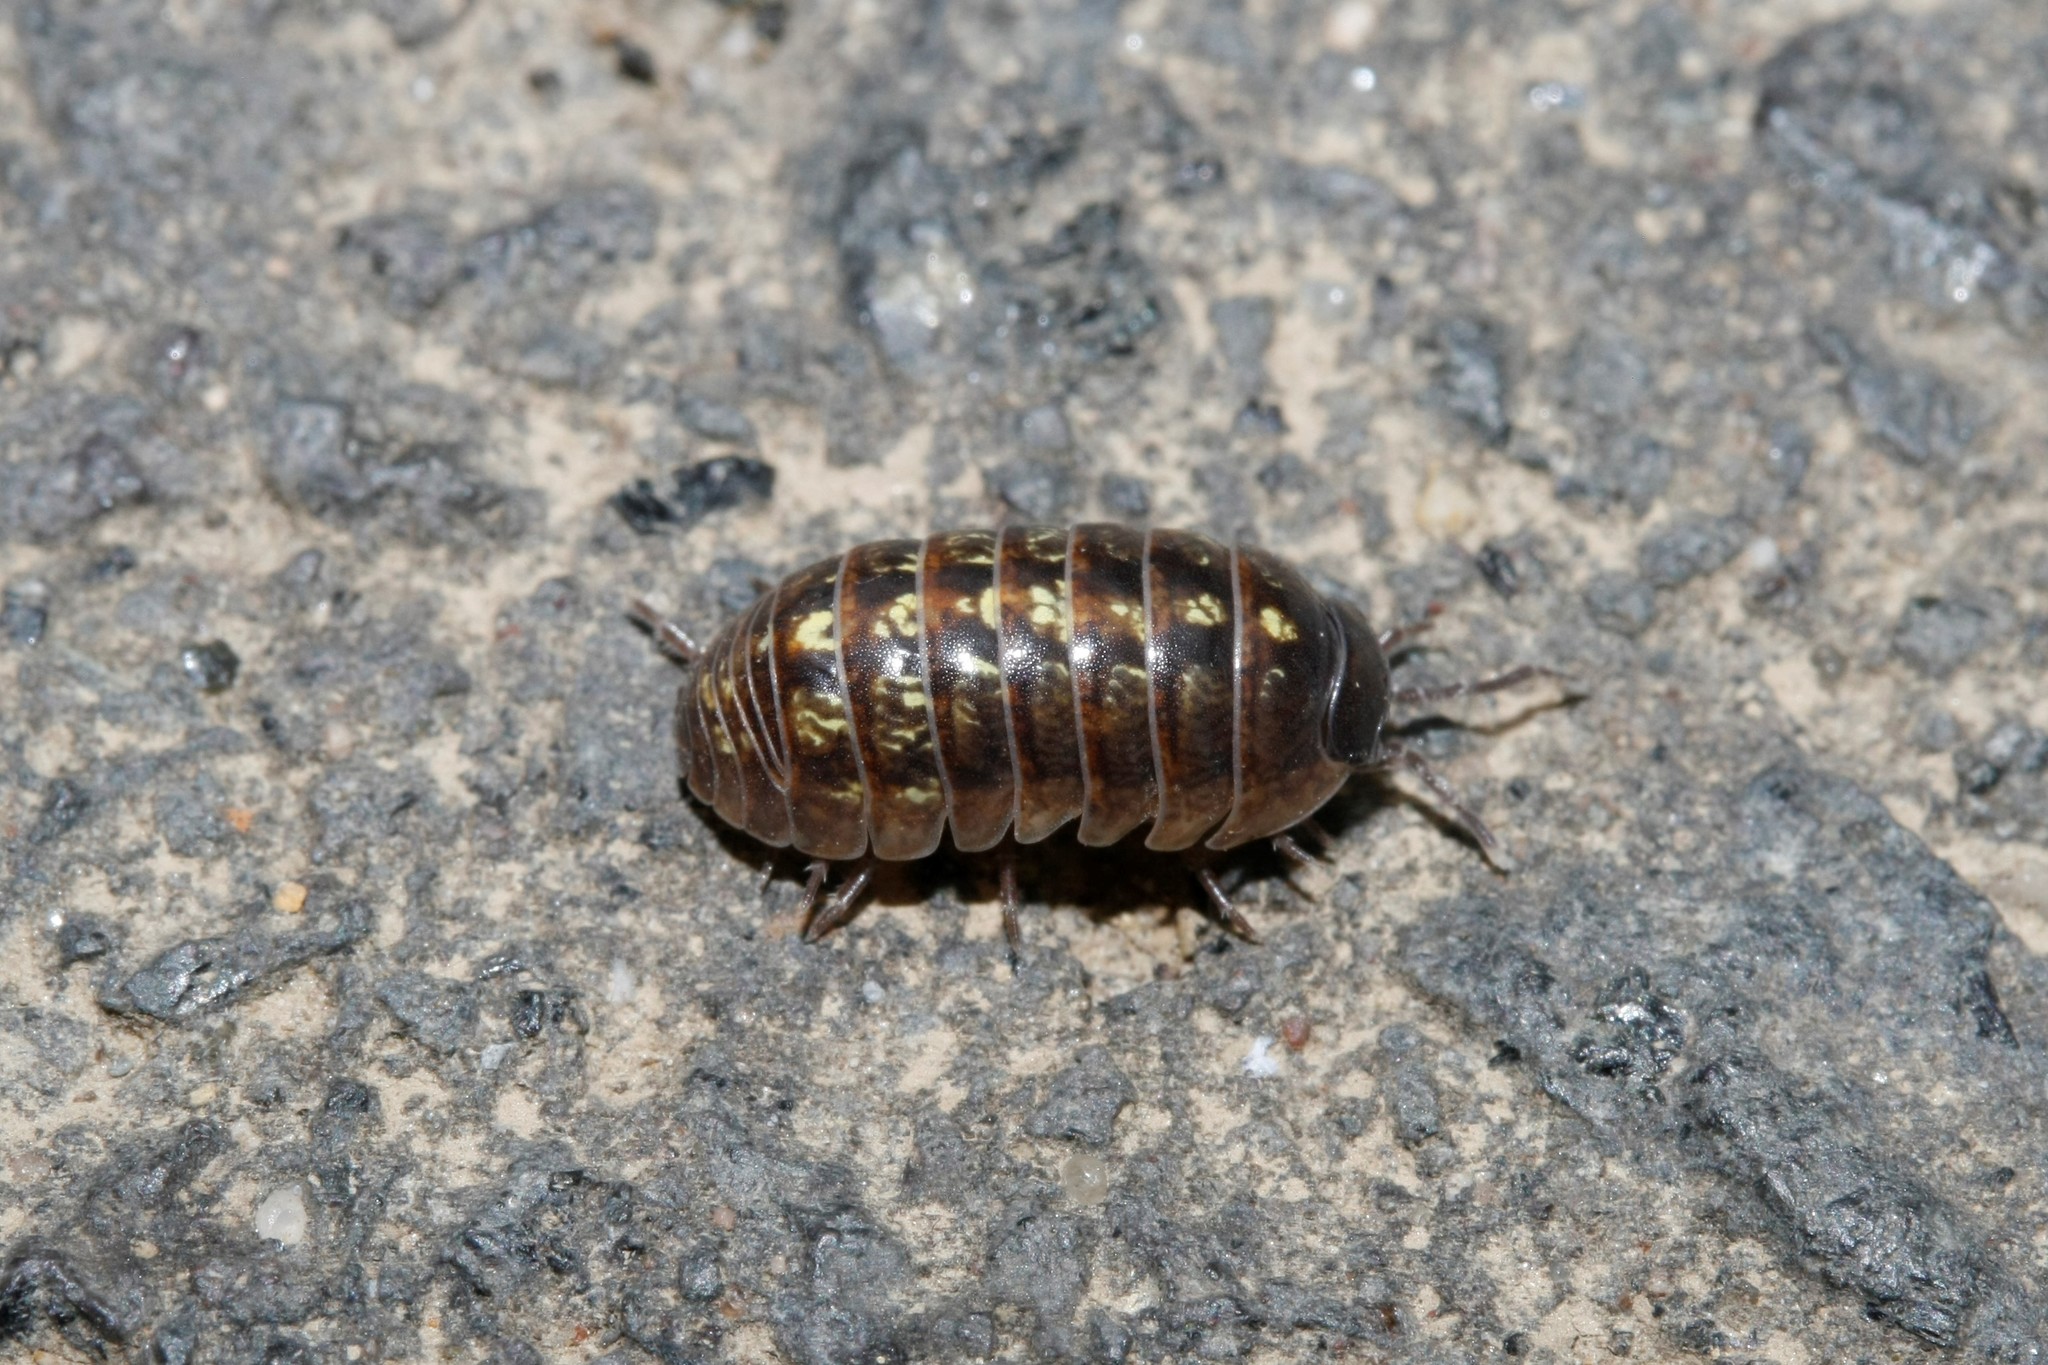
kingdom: Animalia
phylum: Arthropoda
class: Malacostraca
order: Isopoda
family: Armadillidiidae
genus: Armadillidium
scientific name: Armadillidium vulgare
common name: Common pill woodlouse
